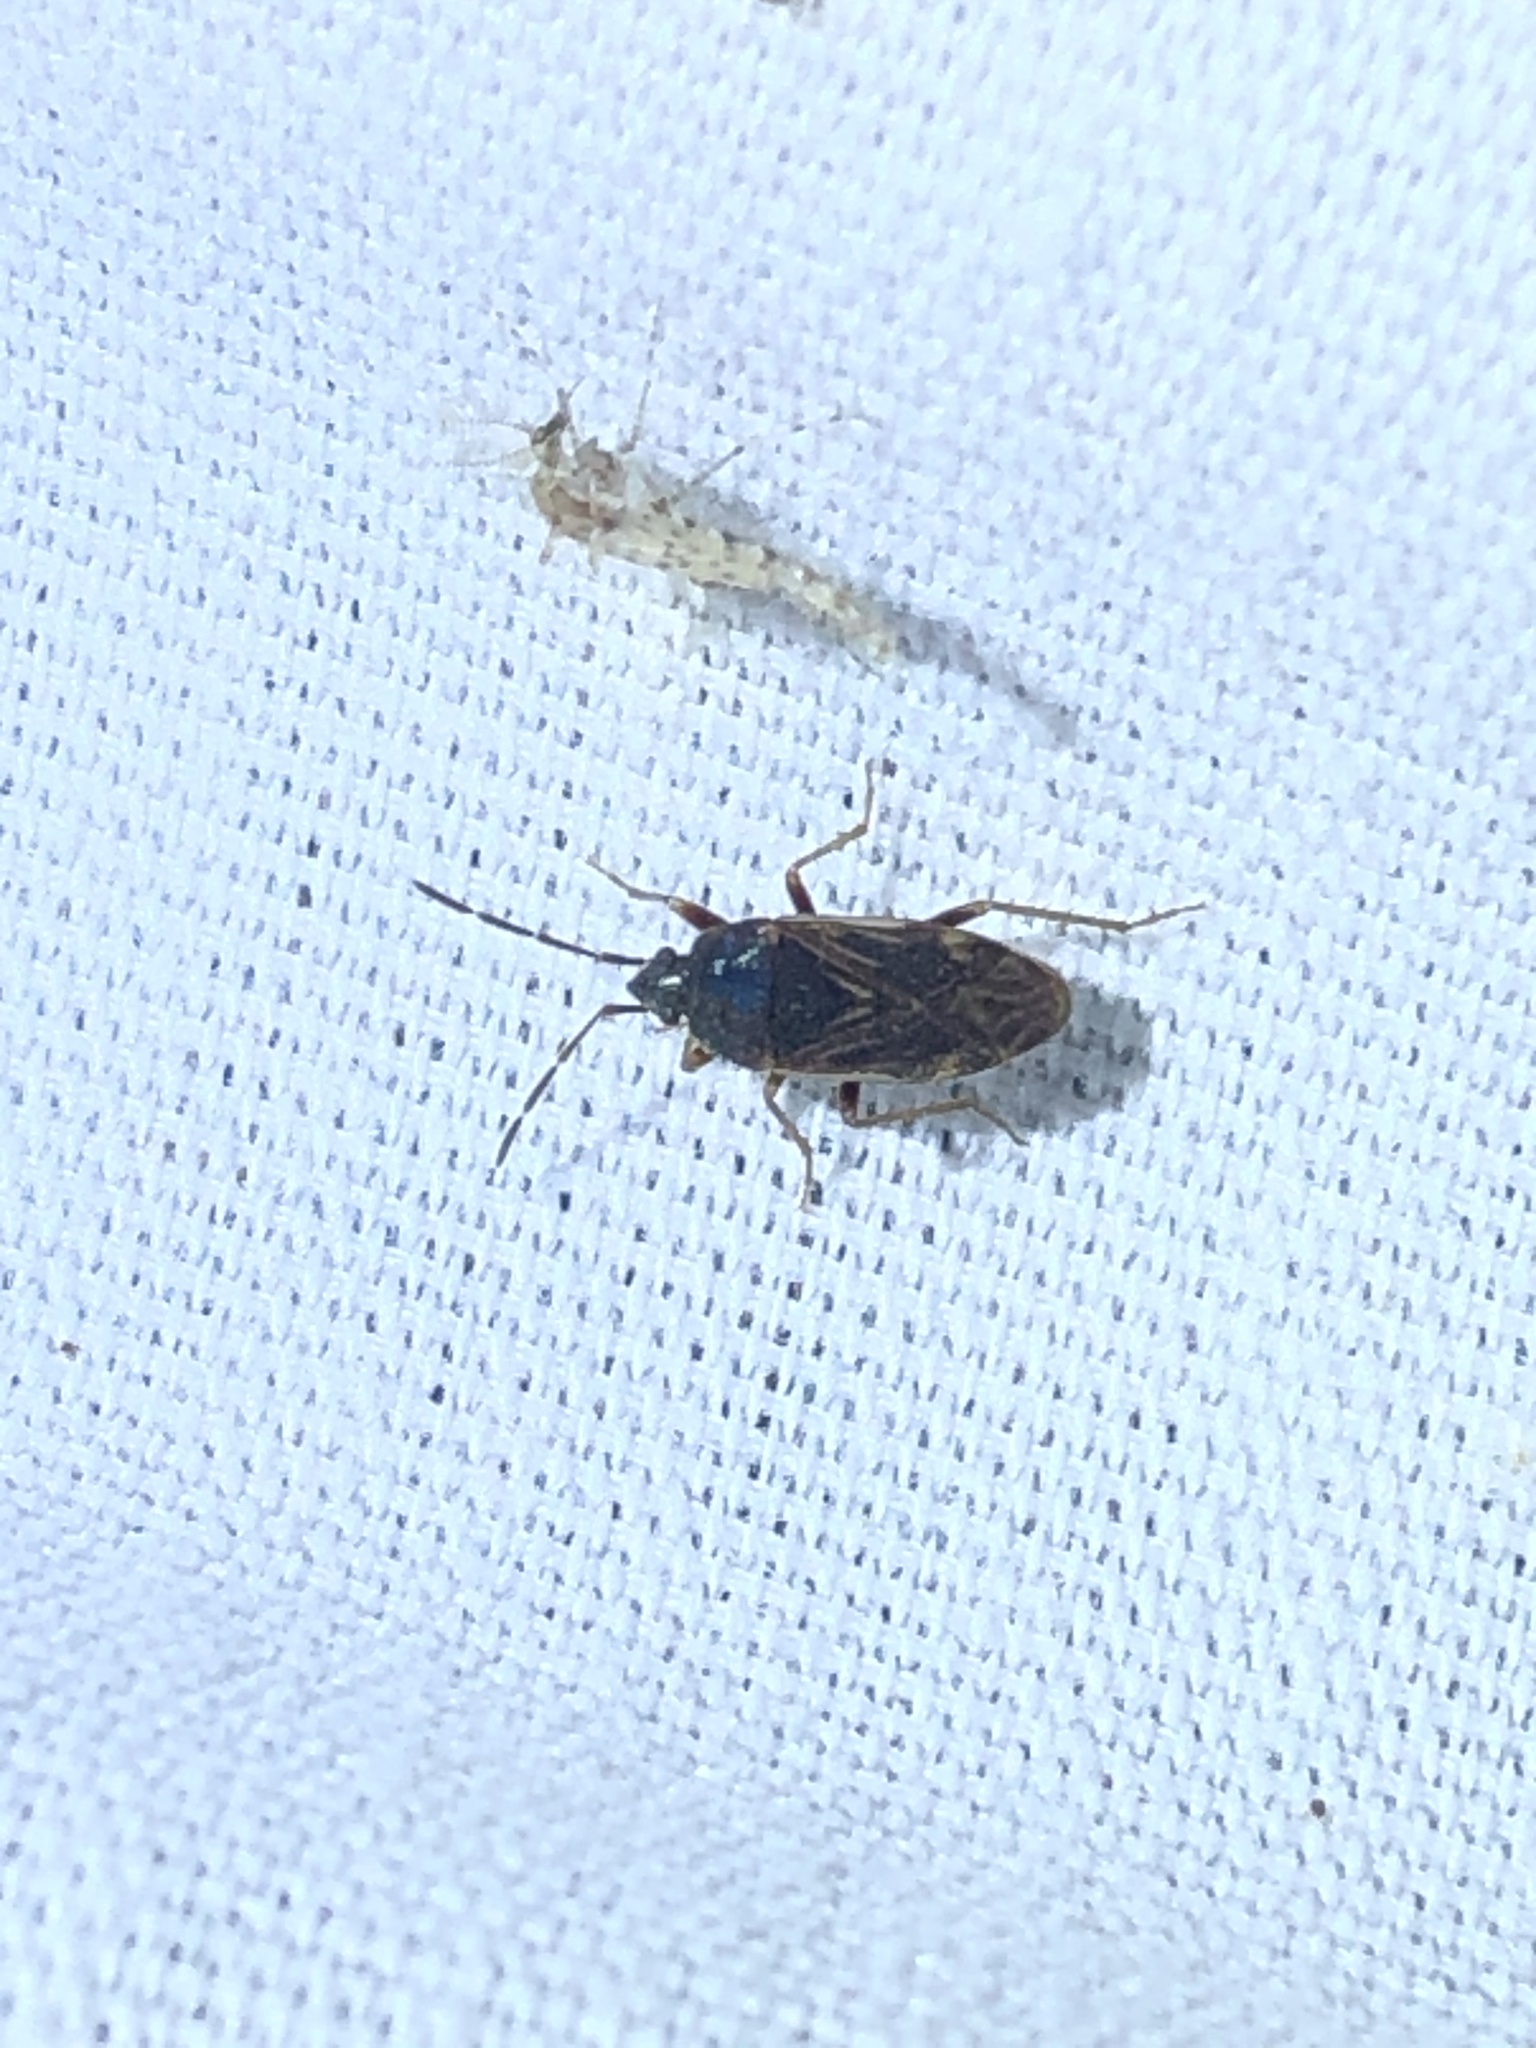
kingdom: Animalia
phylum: Arthropoda
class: Insecta
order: Hemiptera
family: Rhyparochromidae
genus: Paragonatas
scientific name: Paragonatas divergens
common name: Seed bug
